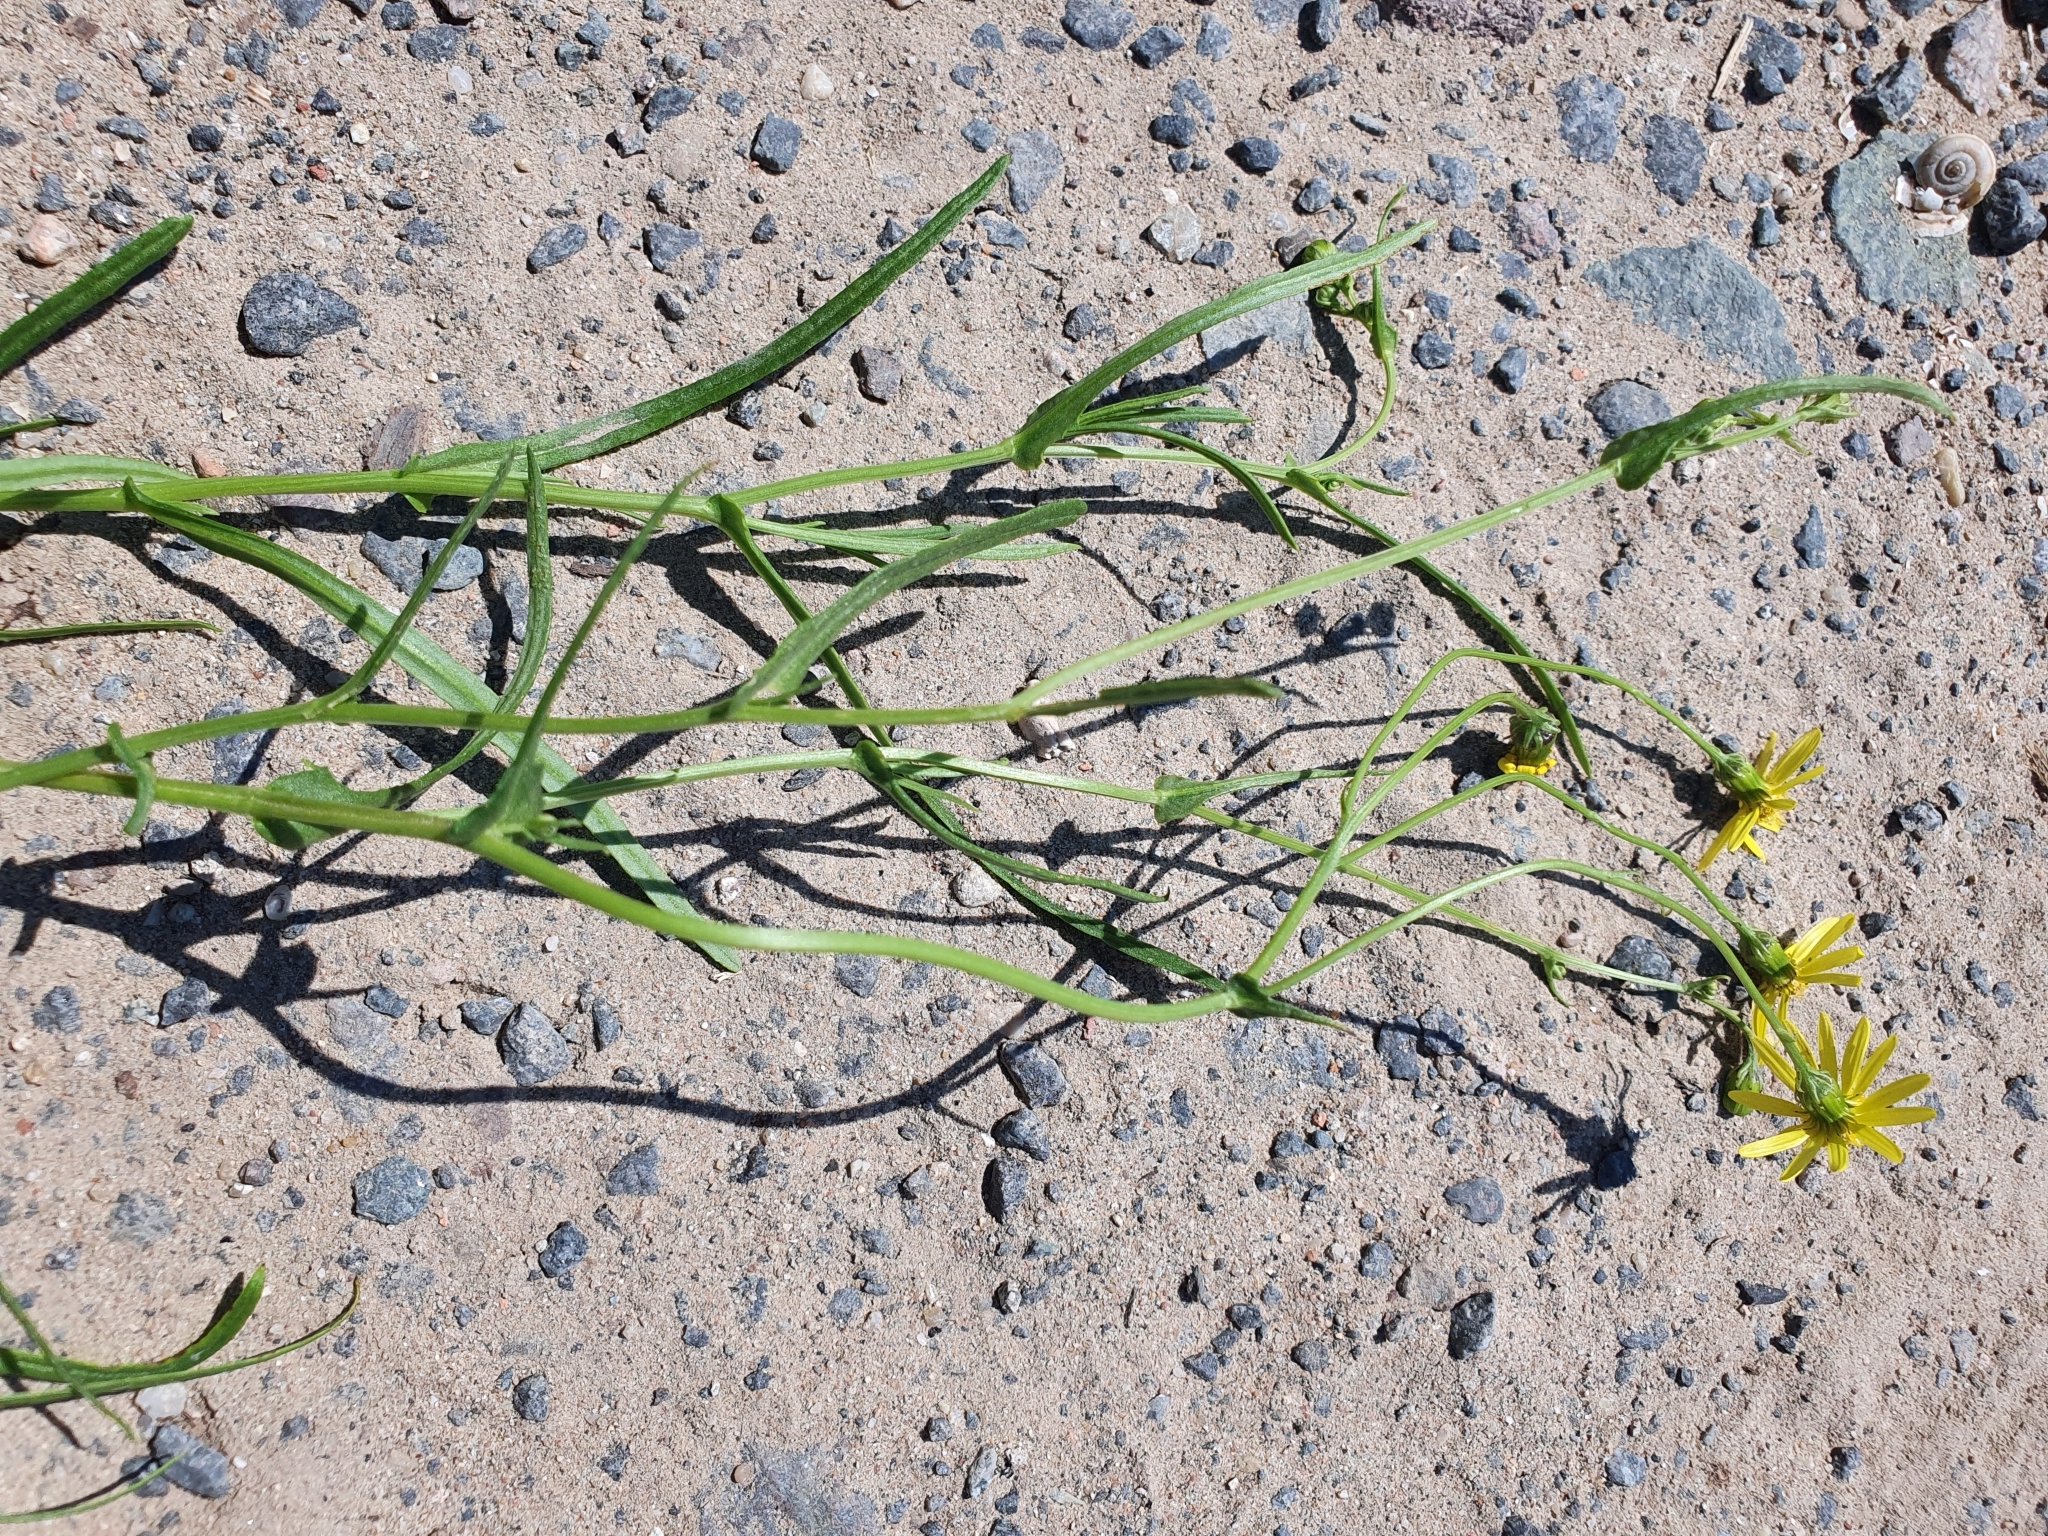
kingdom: Plantae
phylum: Tracheophyta
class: Magnoliopsida
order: Asterales
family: Asteraceae
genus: Senecio
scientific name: Senecio inaequidens
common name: Narrow-leaved ragwort
